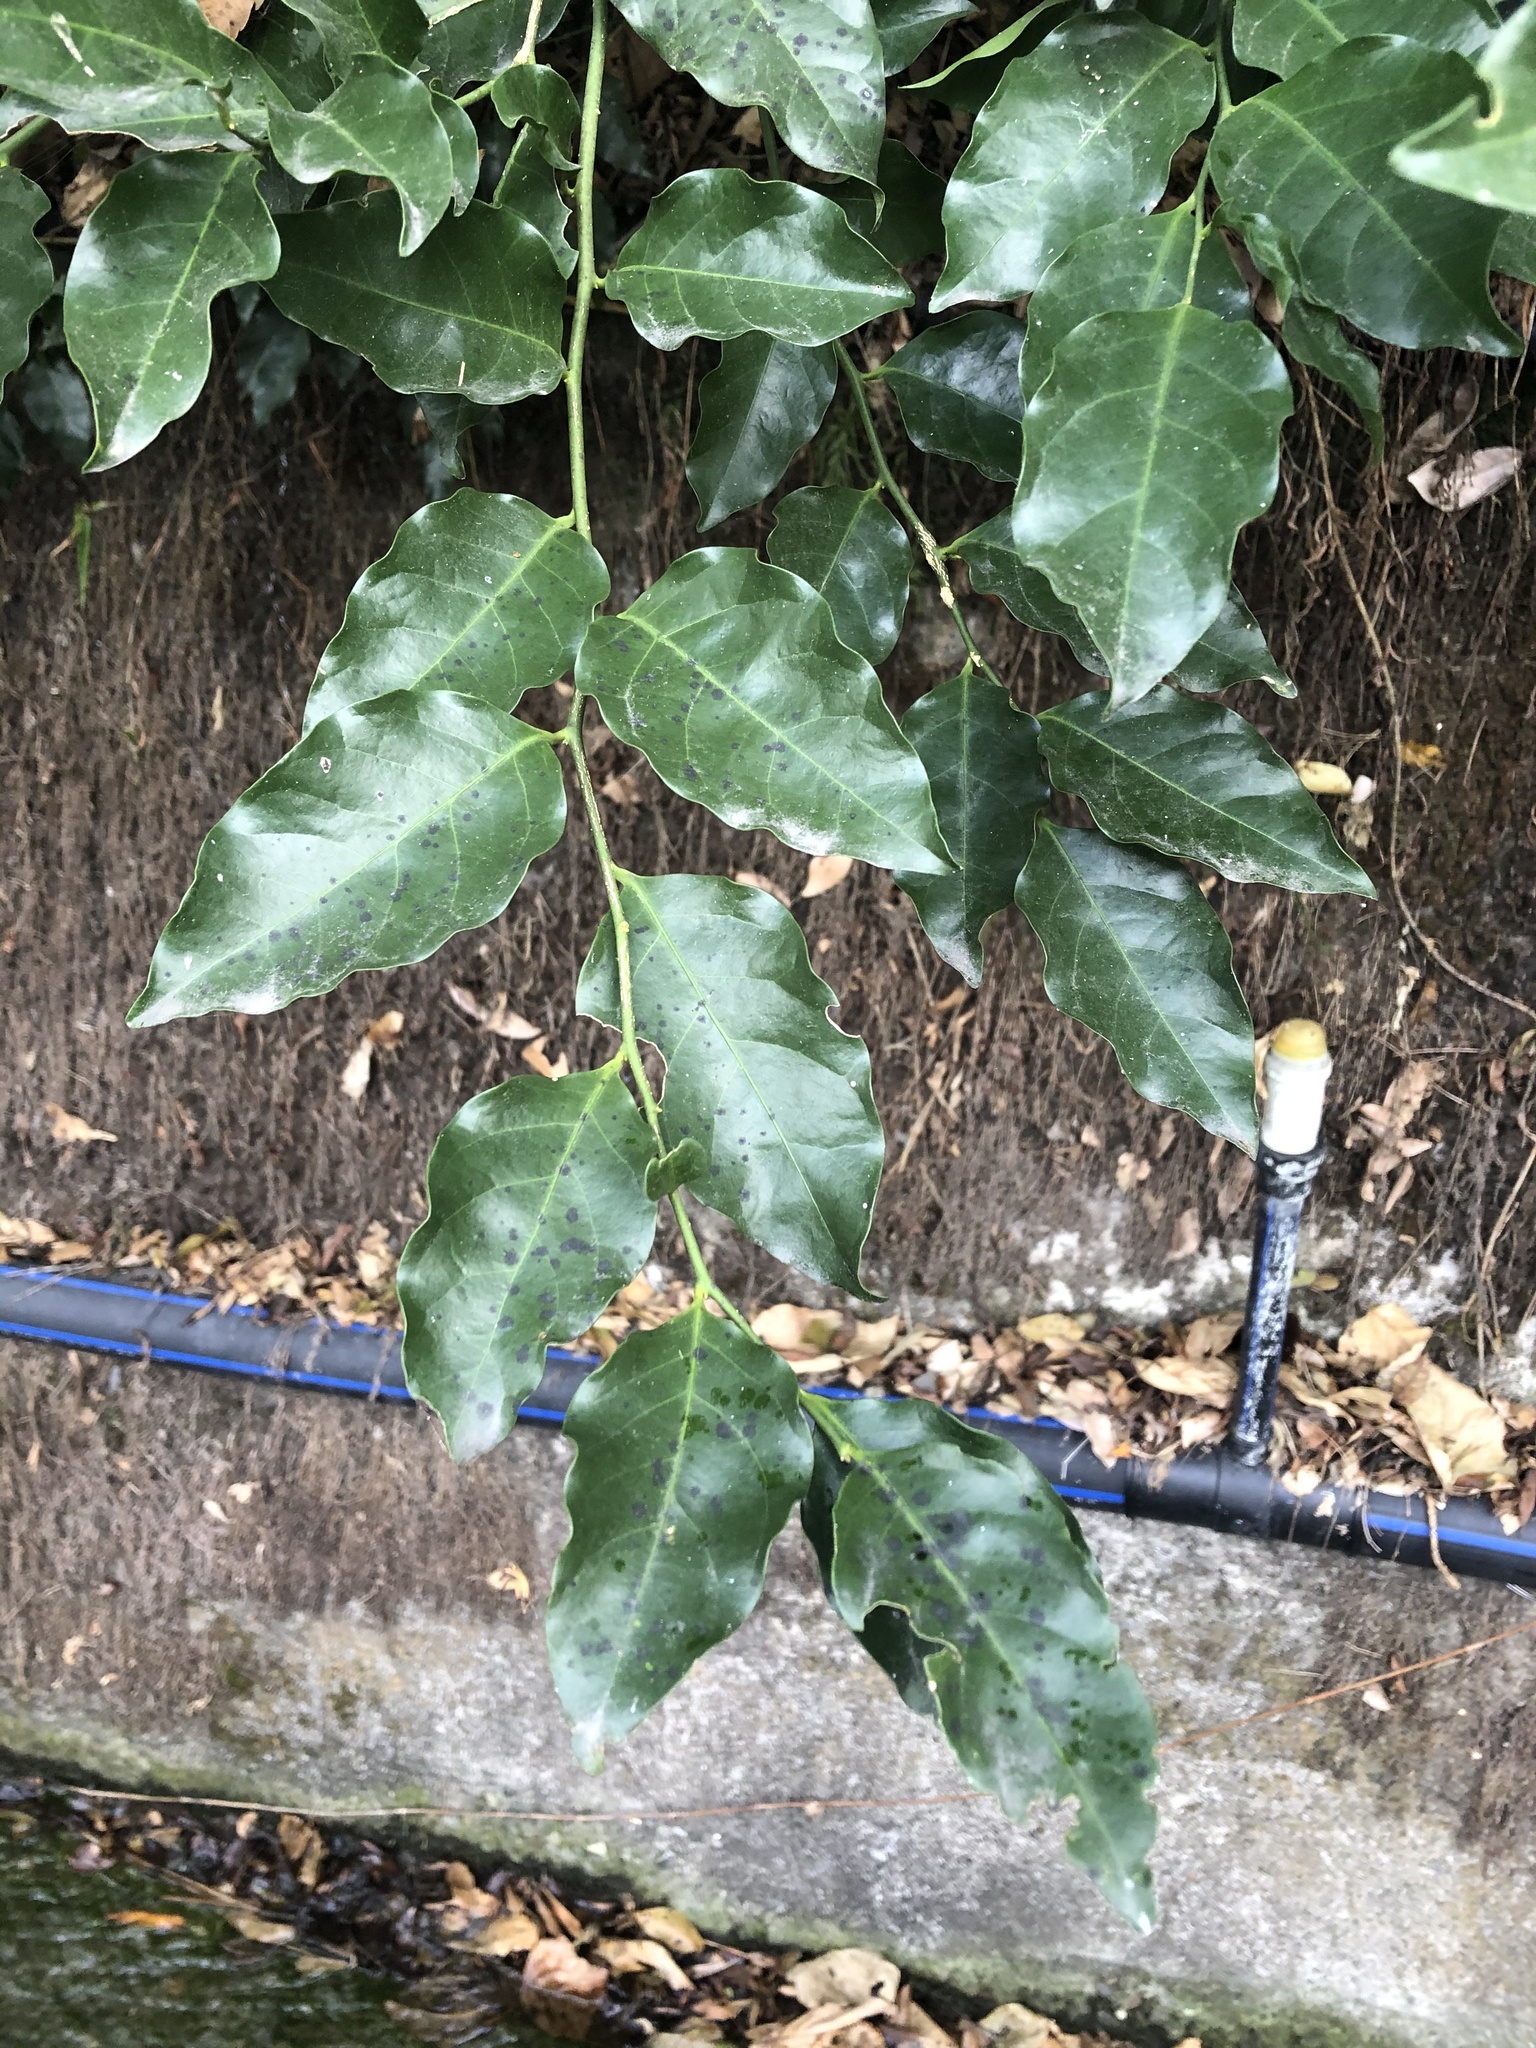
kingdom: Plantae
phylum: Tracheophyta
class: Magnoliopsida
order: Santalales
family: Opiliaceae
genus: Champereia
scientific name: Champereia manillana
